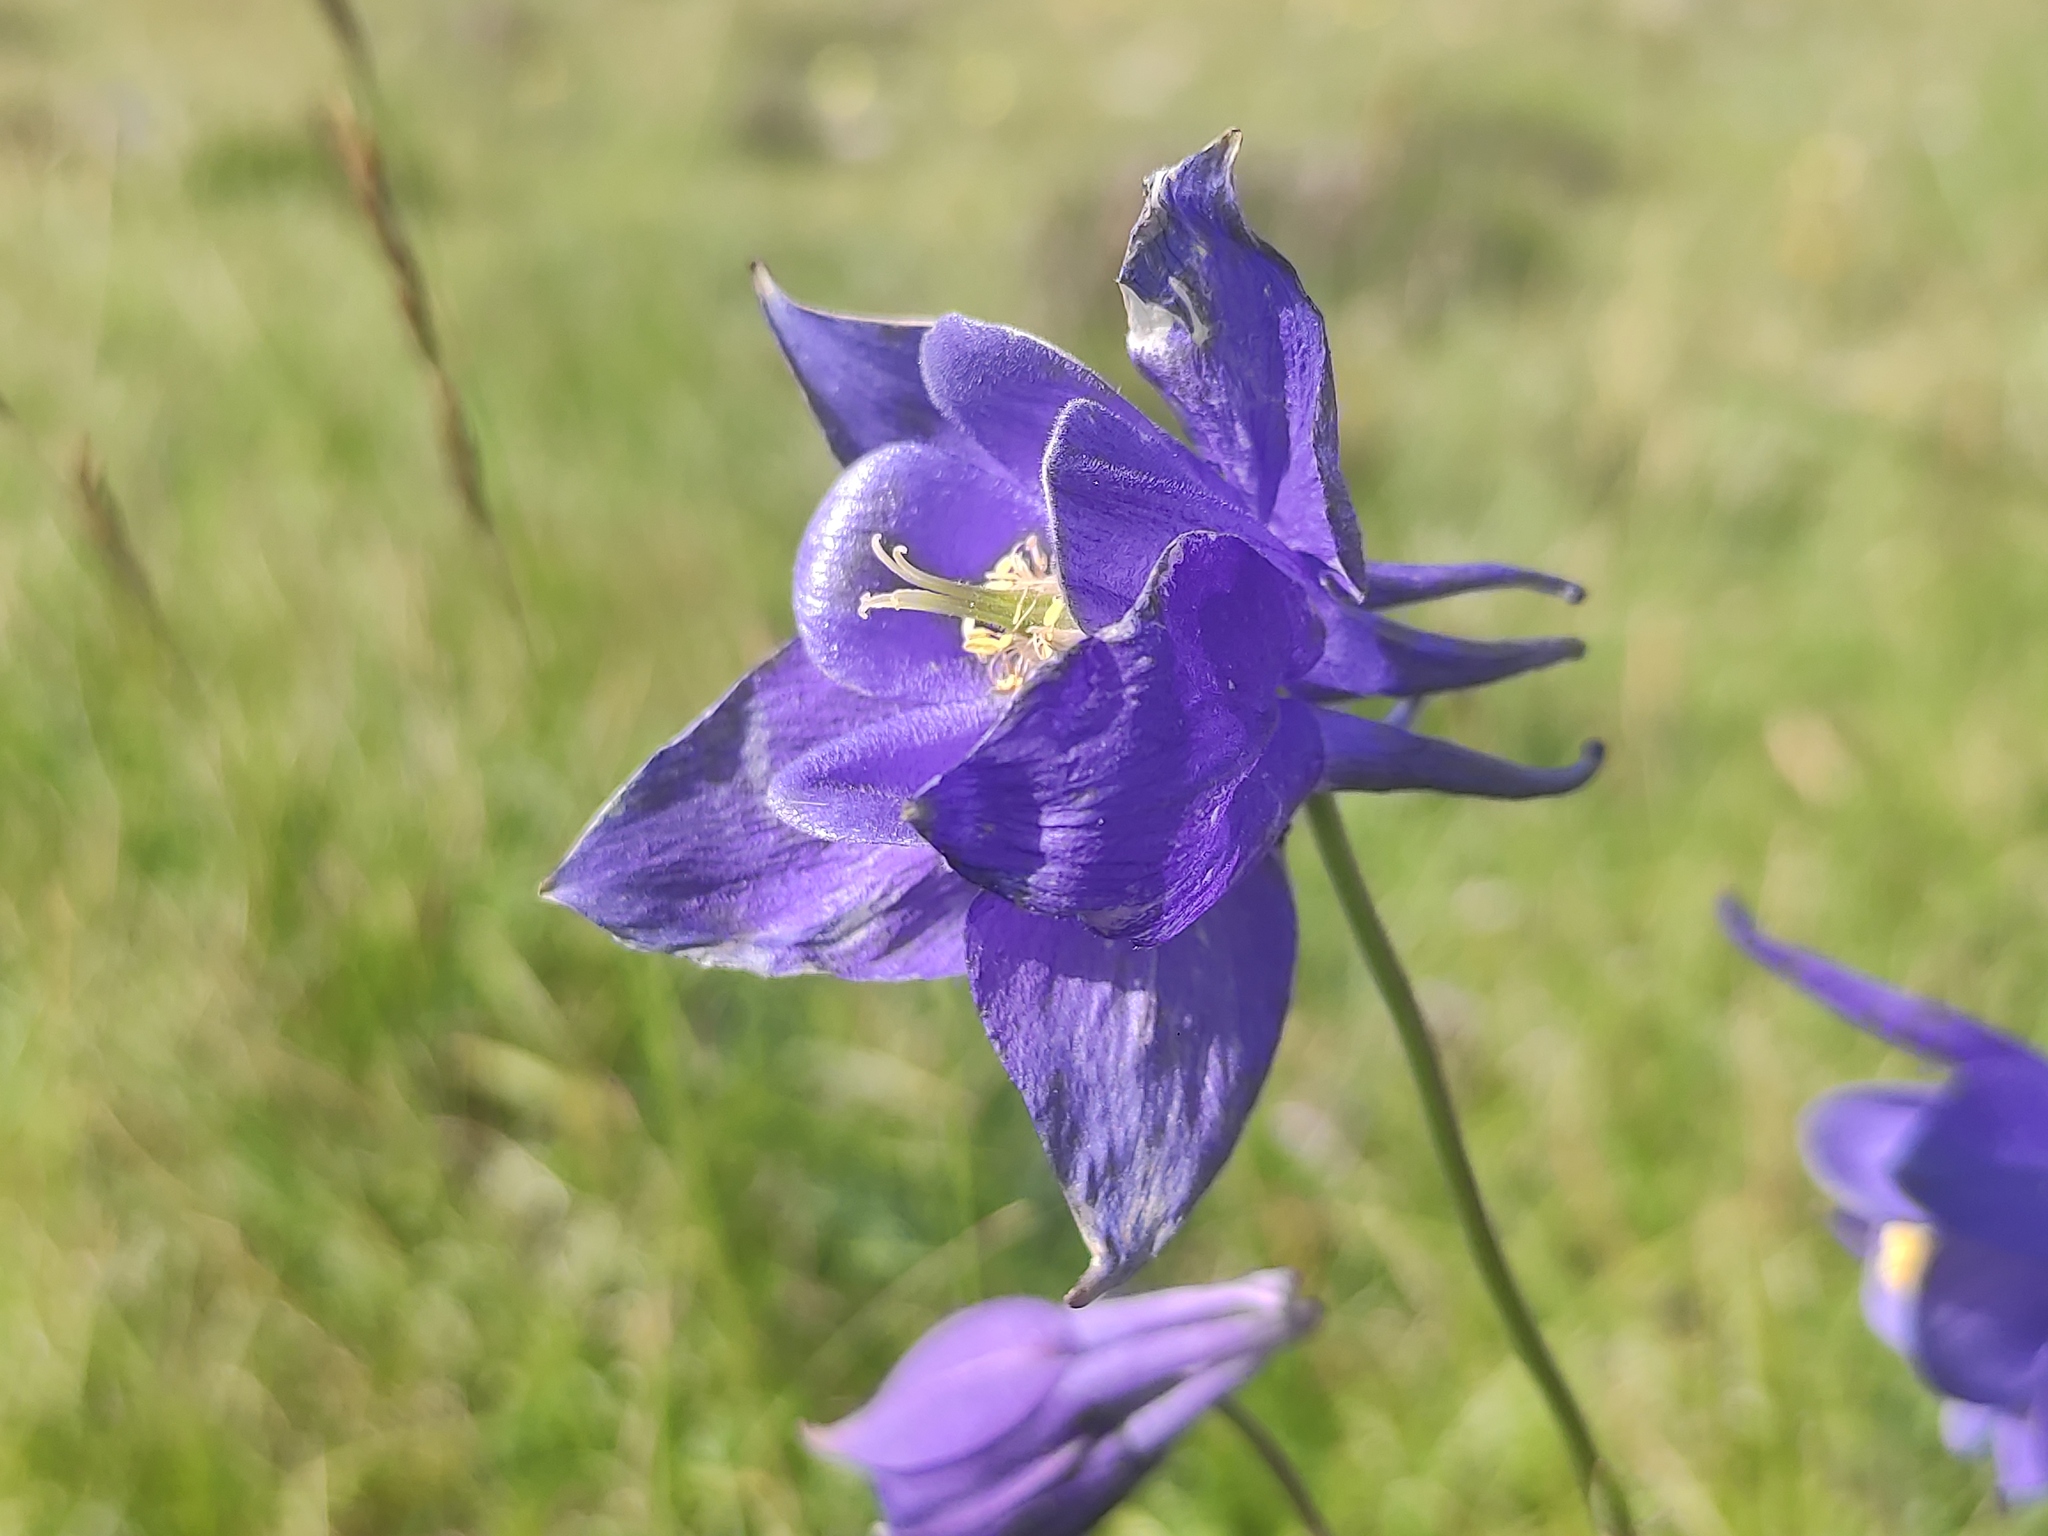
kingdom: Plantae
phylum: Tracheophyta
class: Magnoliopsida
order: Ranunculales
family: Ranunculaceae
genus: Aquilegia
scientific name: Aquilegia pyrenaica
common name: Pyrenean columbine
